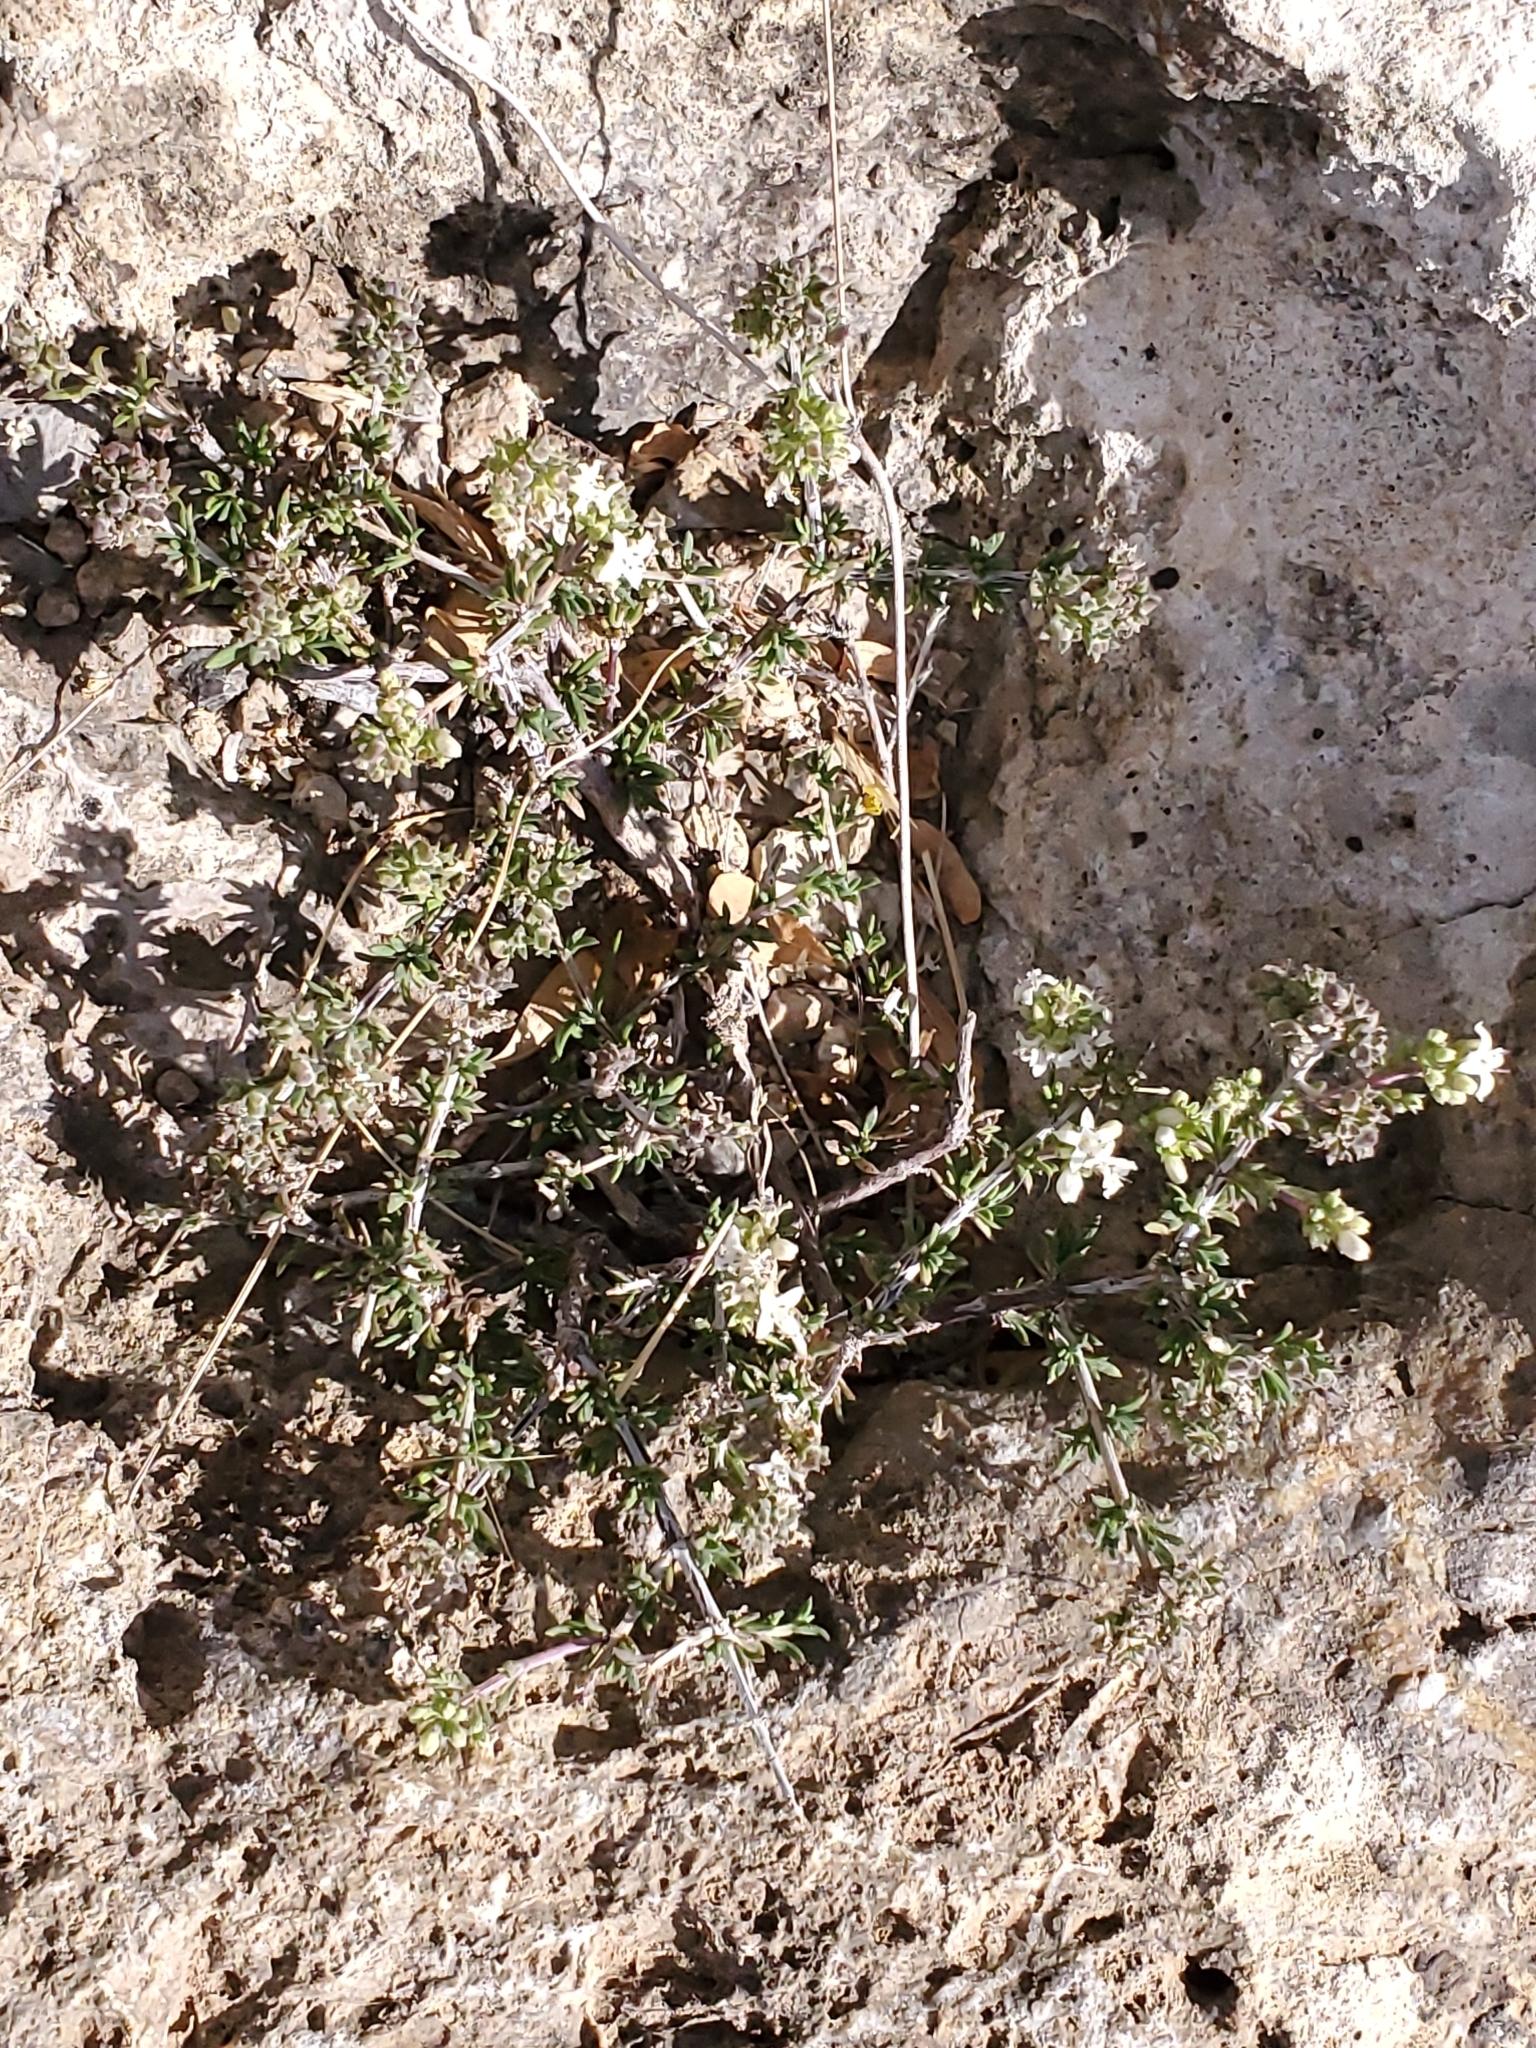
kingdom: Plantae
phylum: Tracheophyta
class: Magnoliopsida
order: Gentianales
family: Rubiaceae
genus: Arcytophyllum
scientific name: Arcytophyllum fasciculatum
